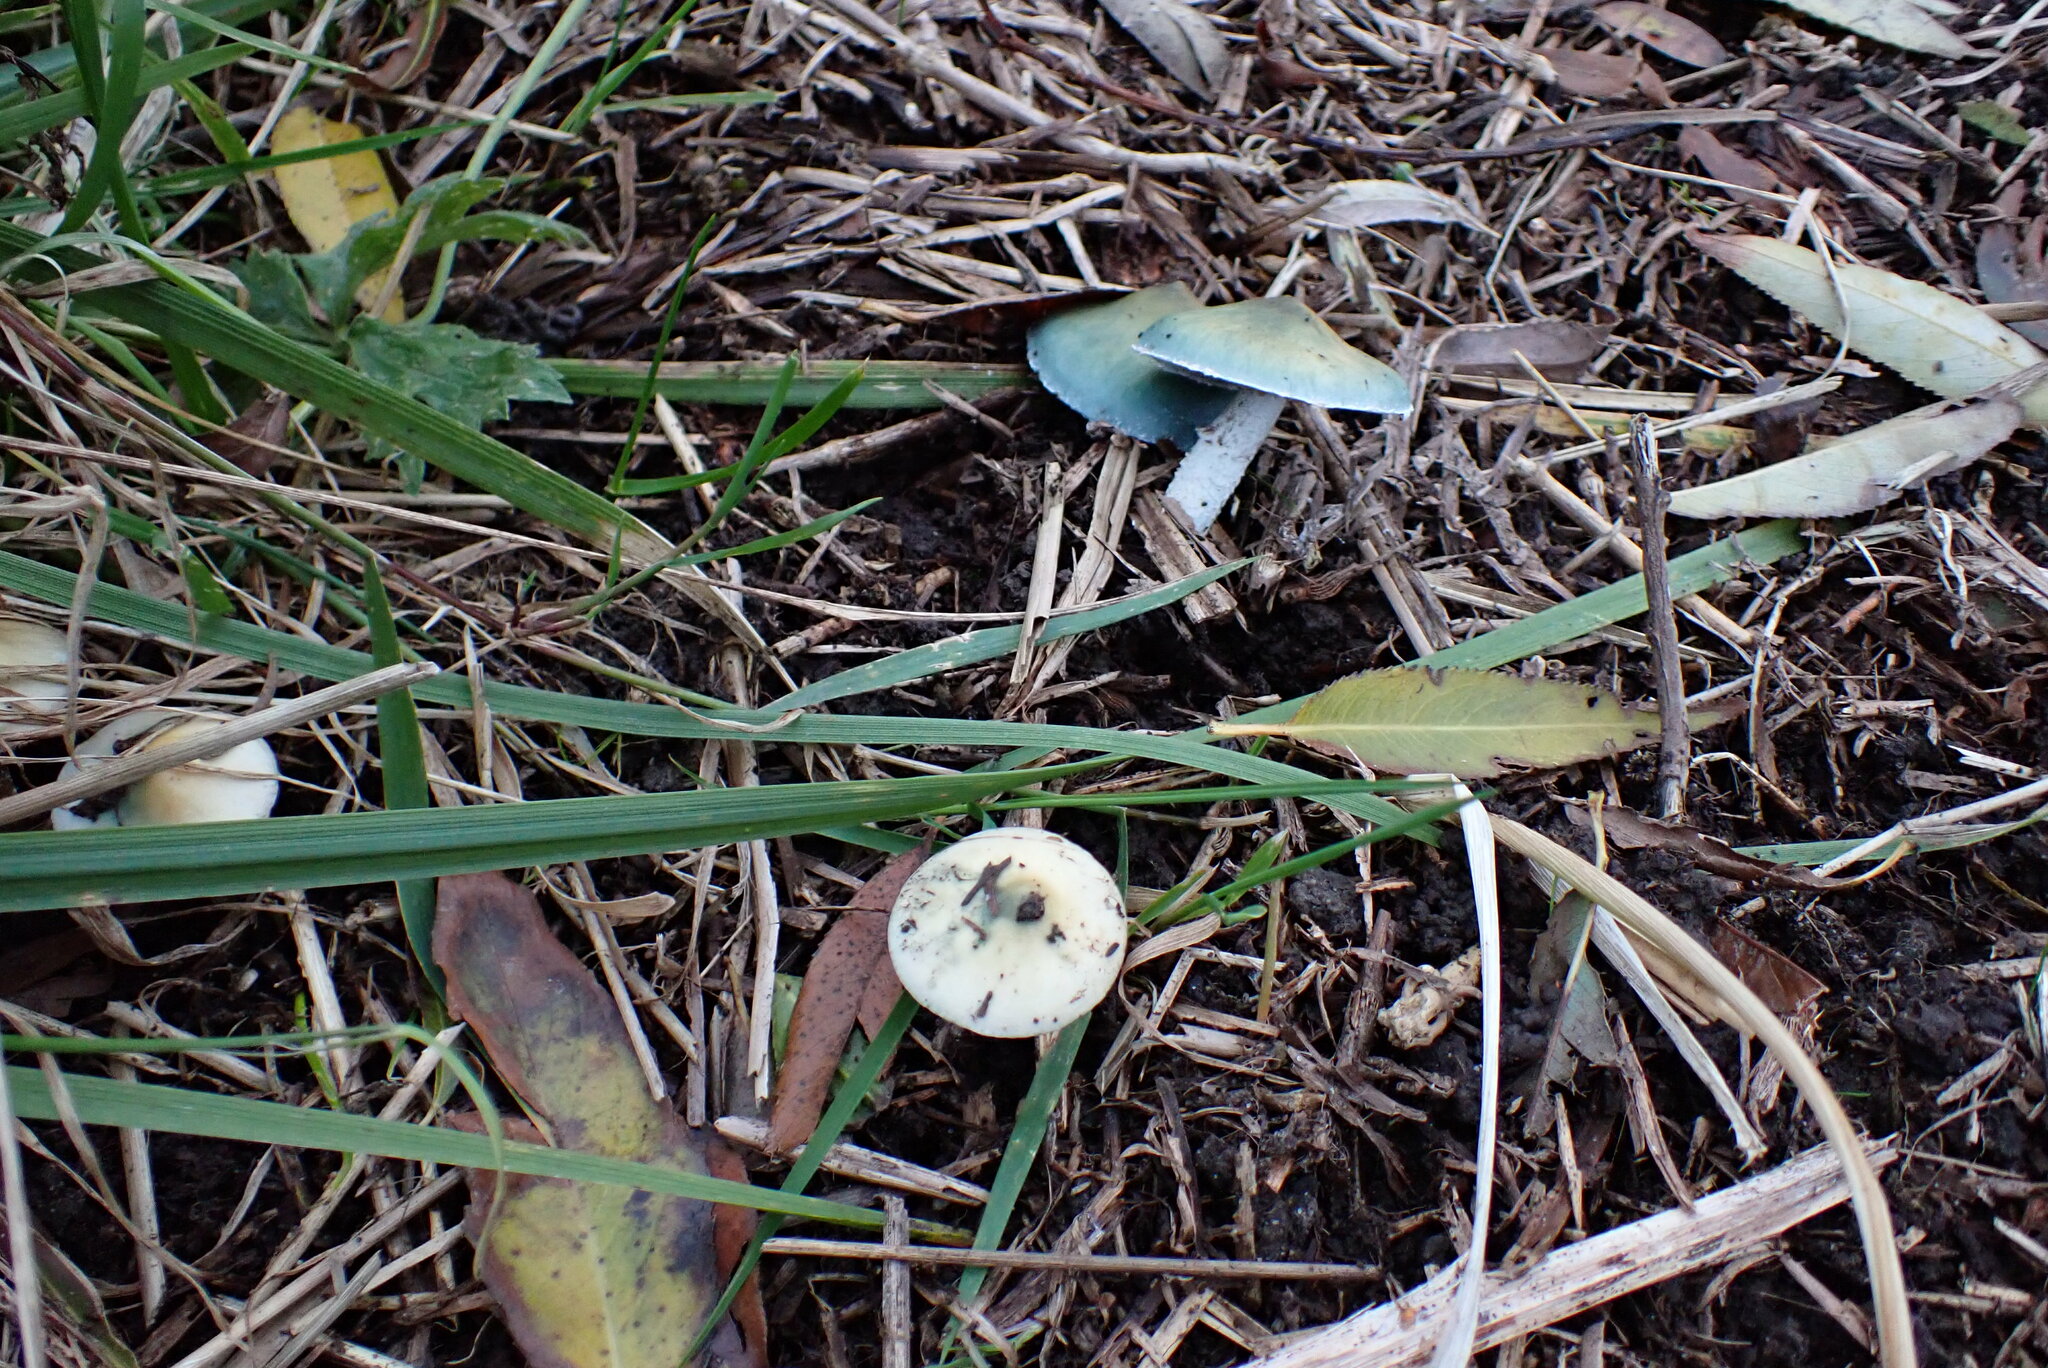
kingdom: Fungi
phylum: Basidiomycota
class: Agaricomycetes
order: Agaricales
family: Strophariaceae
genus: Stropharia
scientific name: Stropharia aeruginosa
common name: Verdigris roundhead
